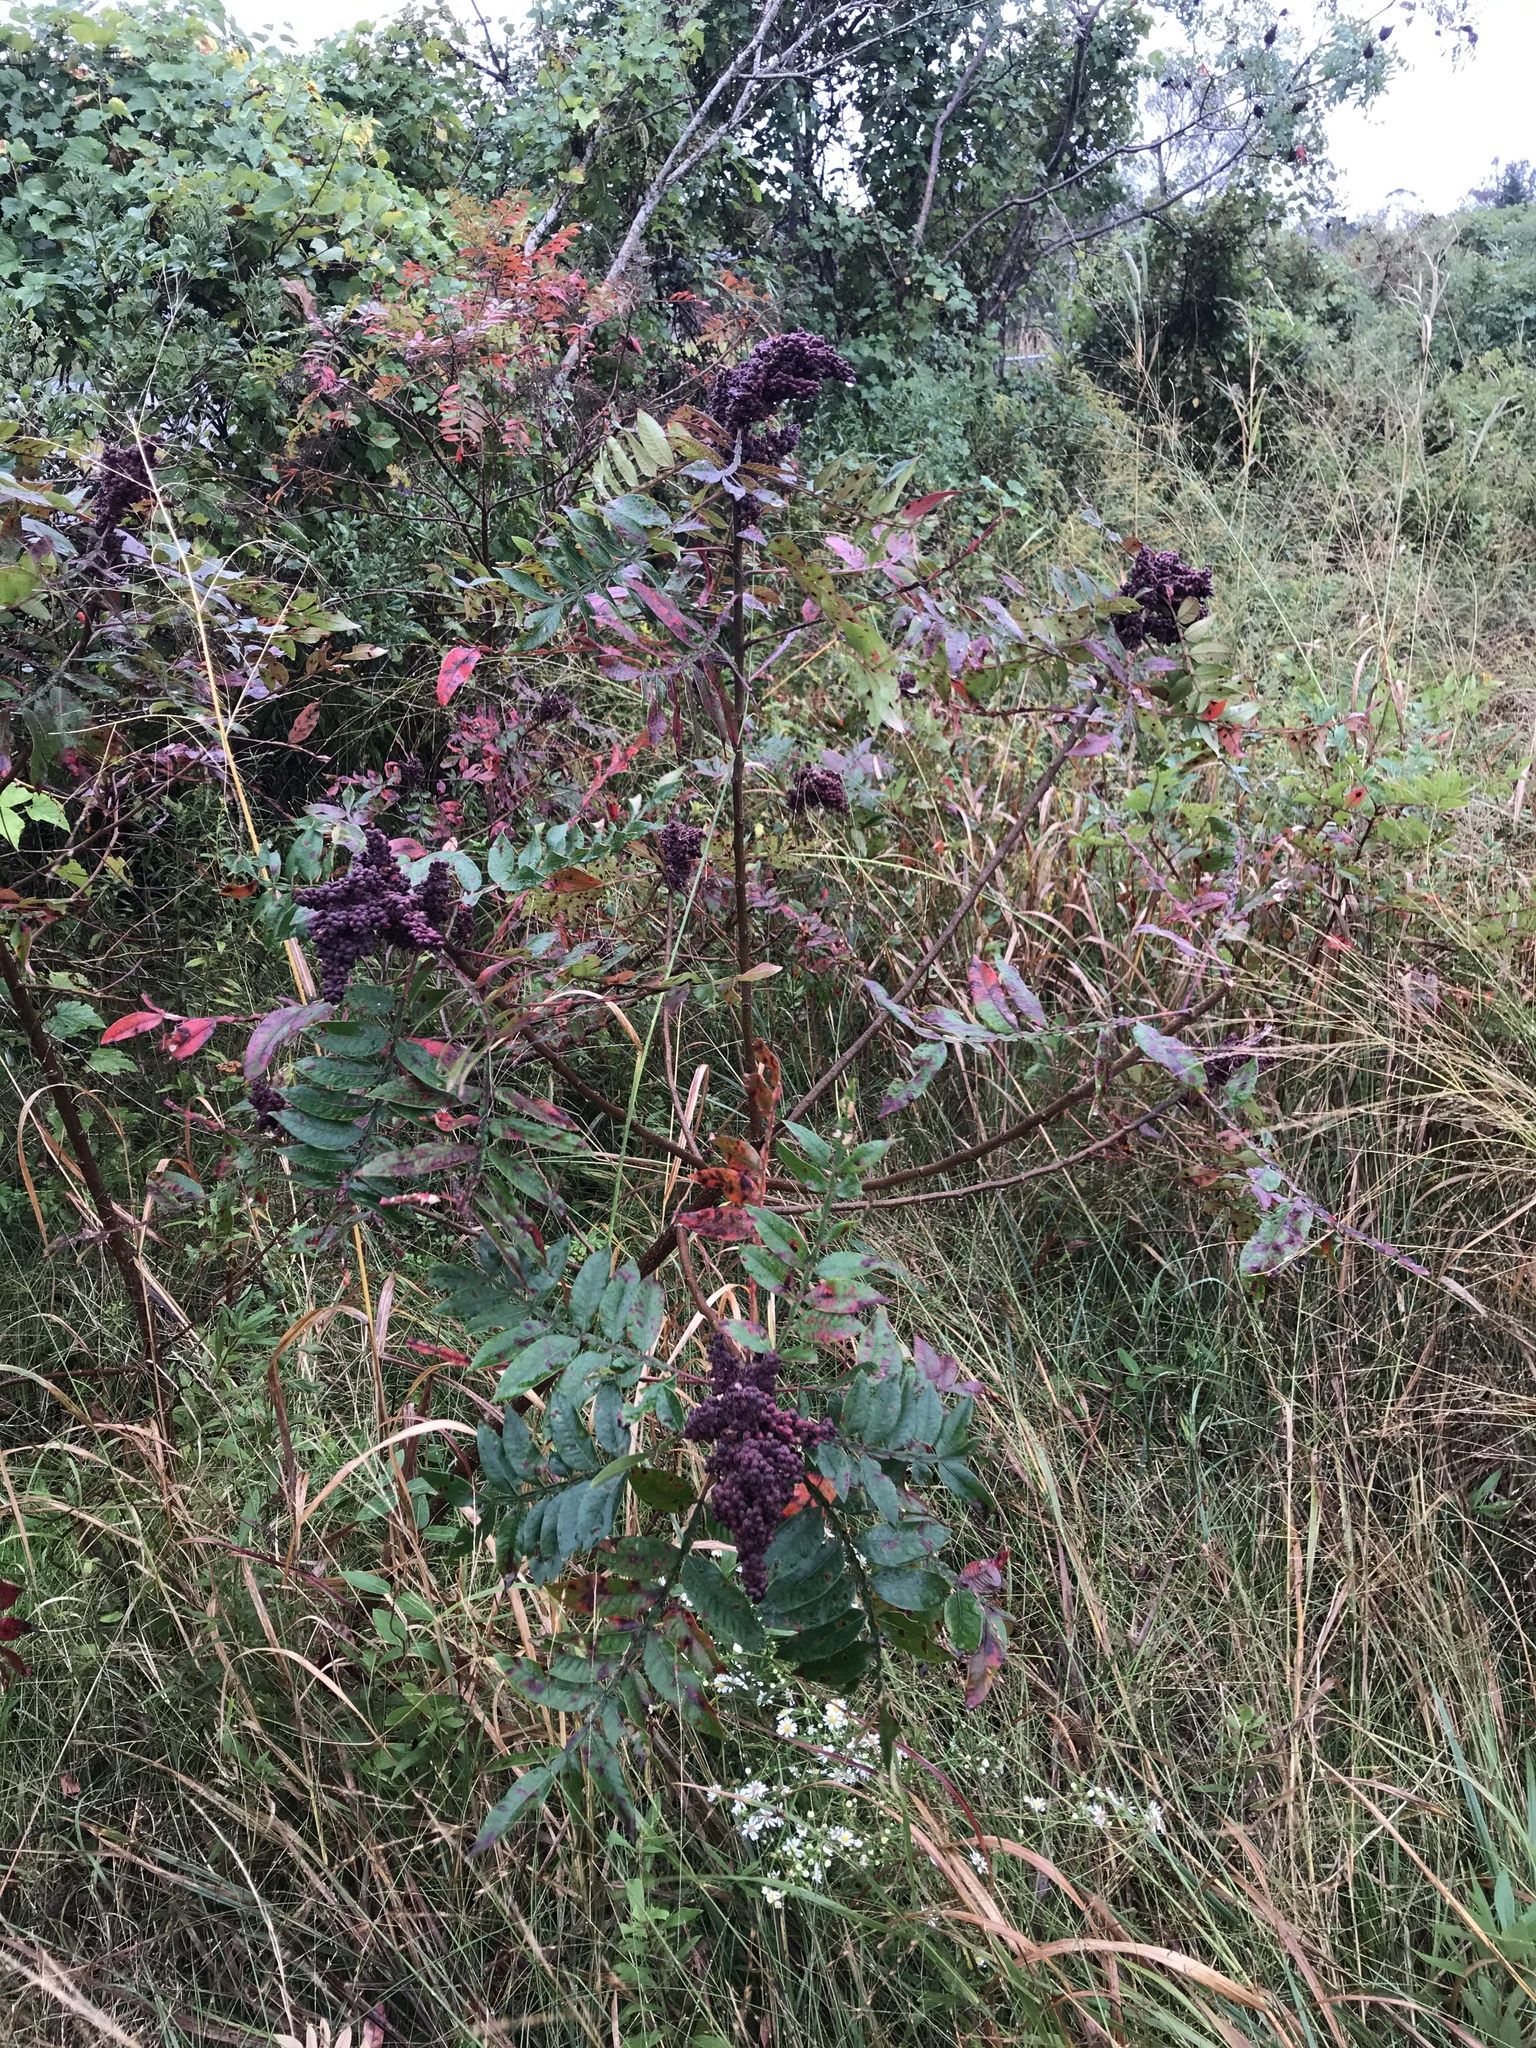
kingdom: Plantae
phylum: Tracheophyta
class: Magnoliopsida
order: Sapindales
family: Anacardiaceae
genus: Rhus
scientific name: Rhus copallina
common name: Shining sumac
